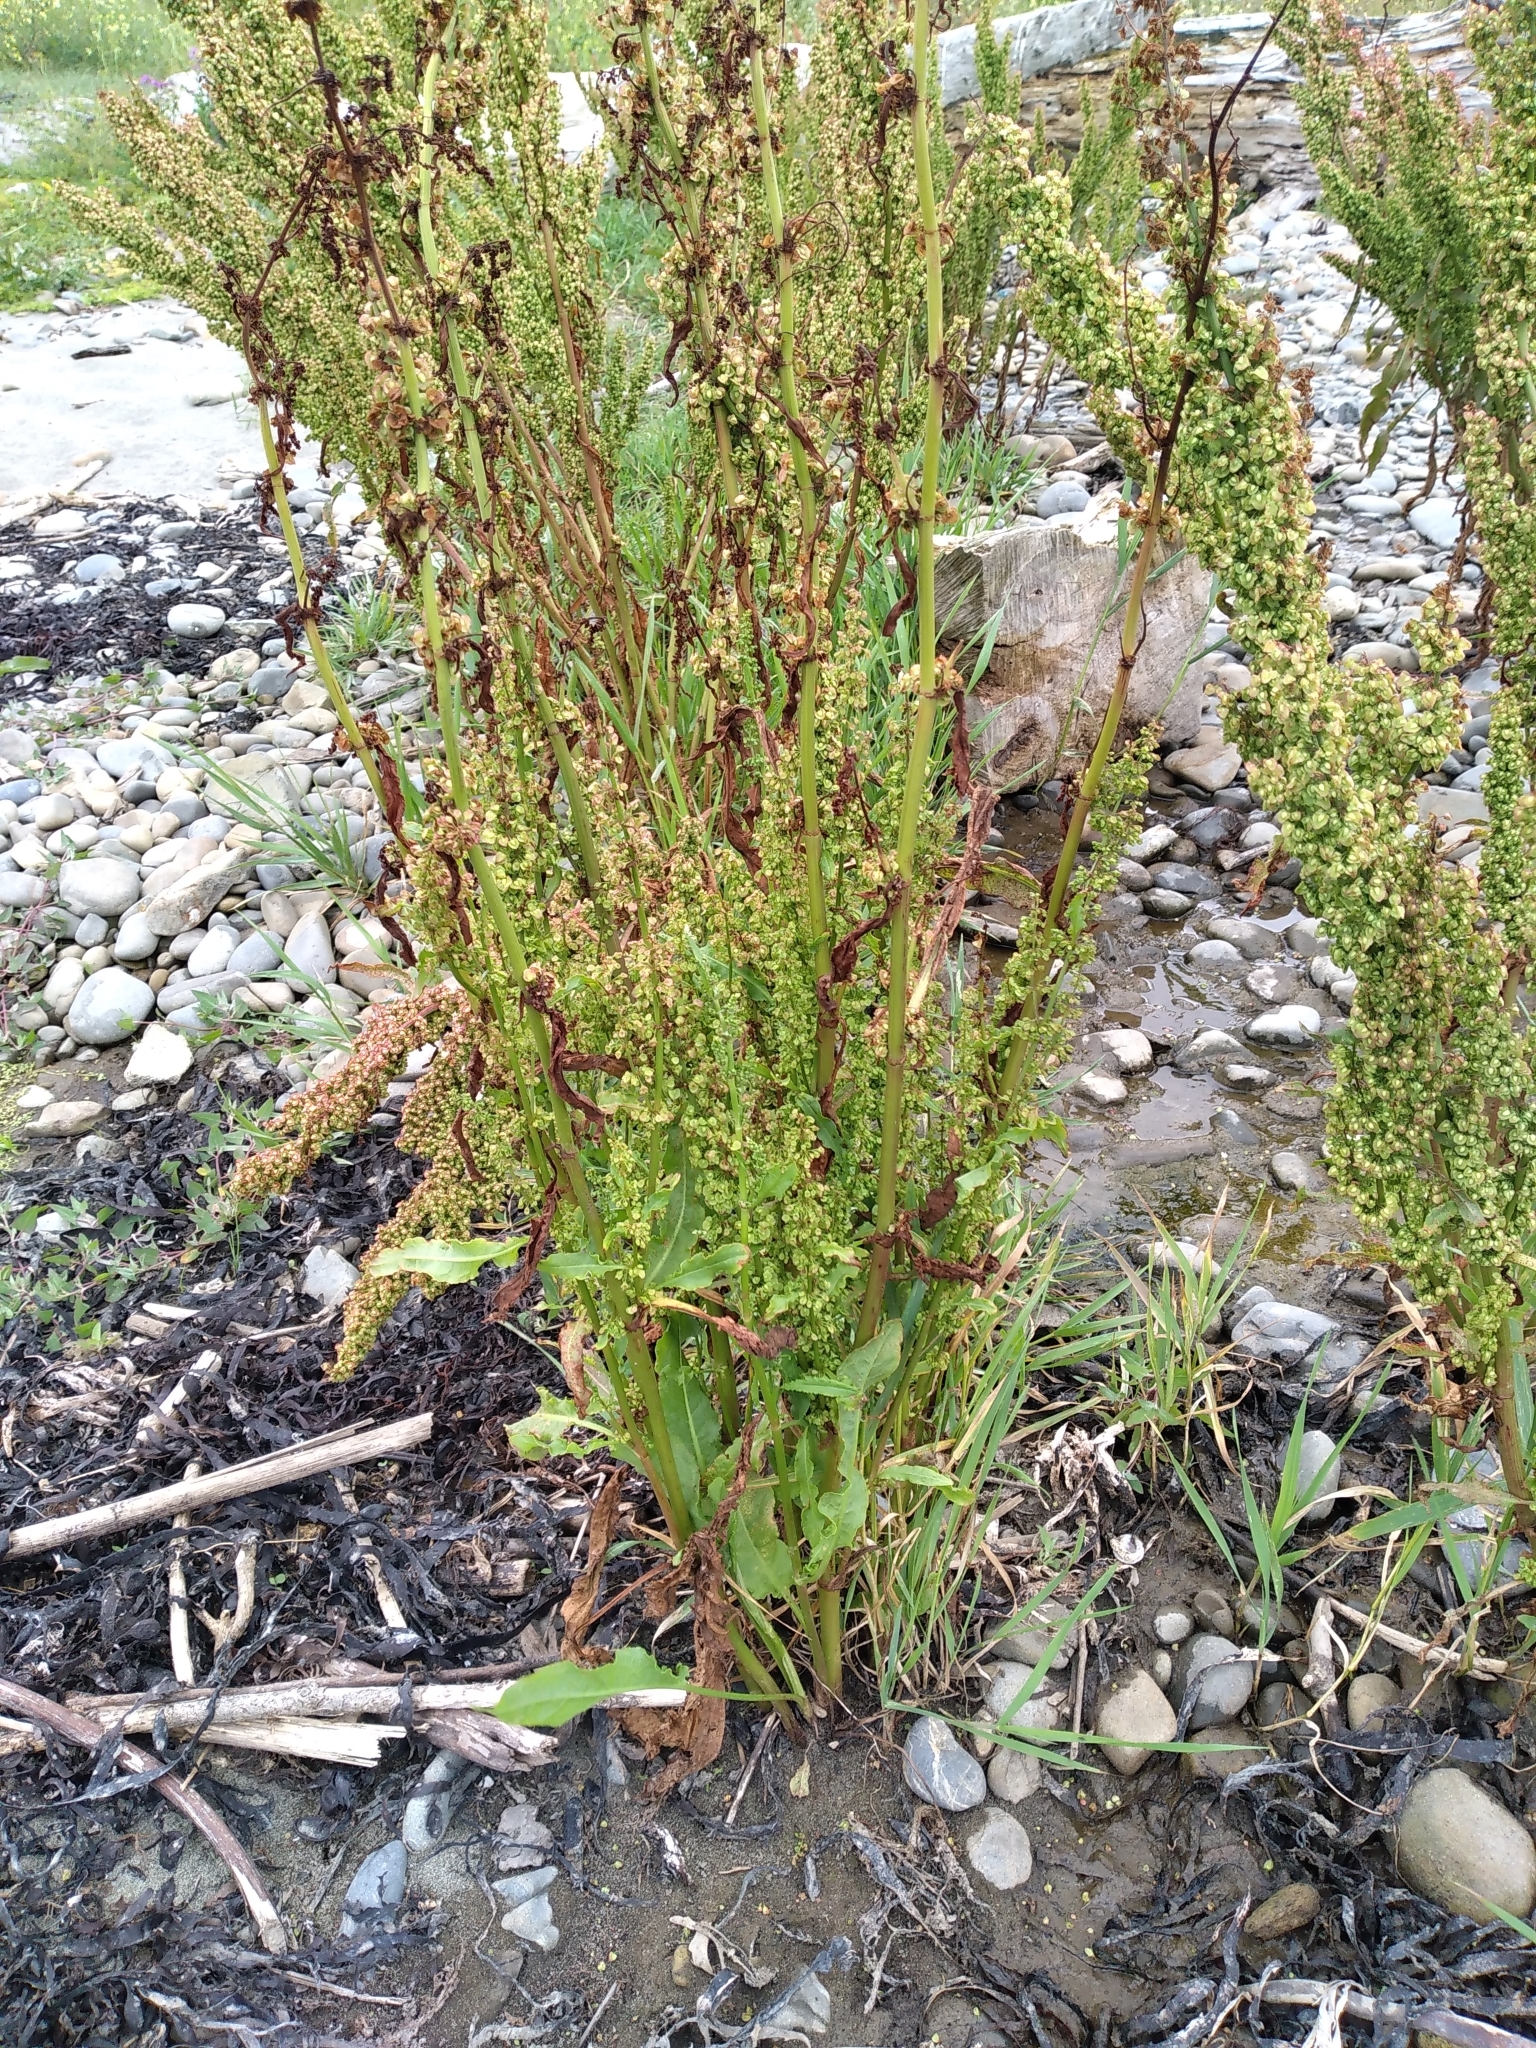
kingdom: Plantae
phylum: Tracheophyta
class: Magnoliopsida
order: Caryophyllales
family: Polygonaceae
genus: Rumex
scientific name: Rumex crispus
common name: Curled dock
